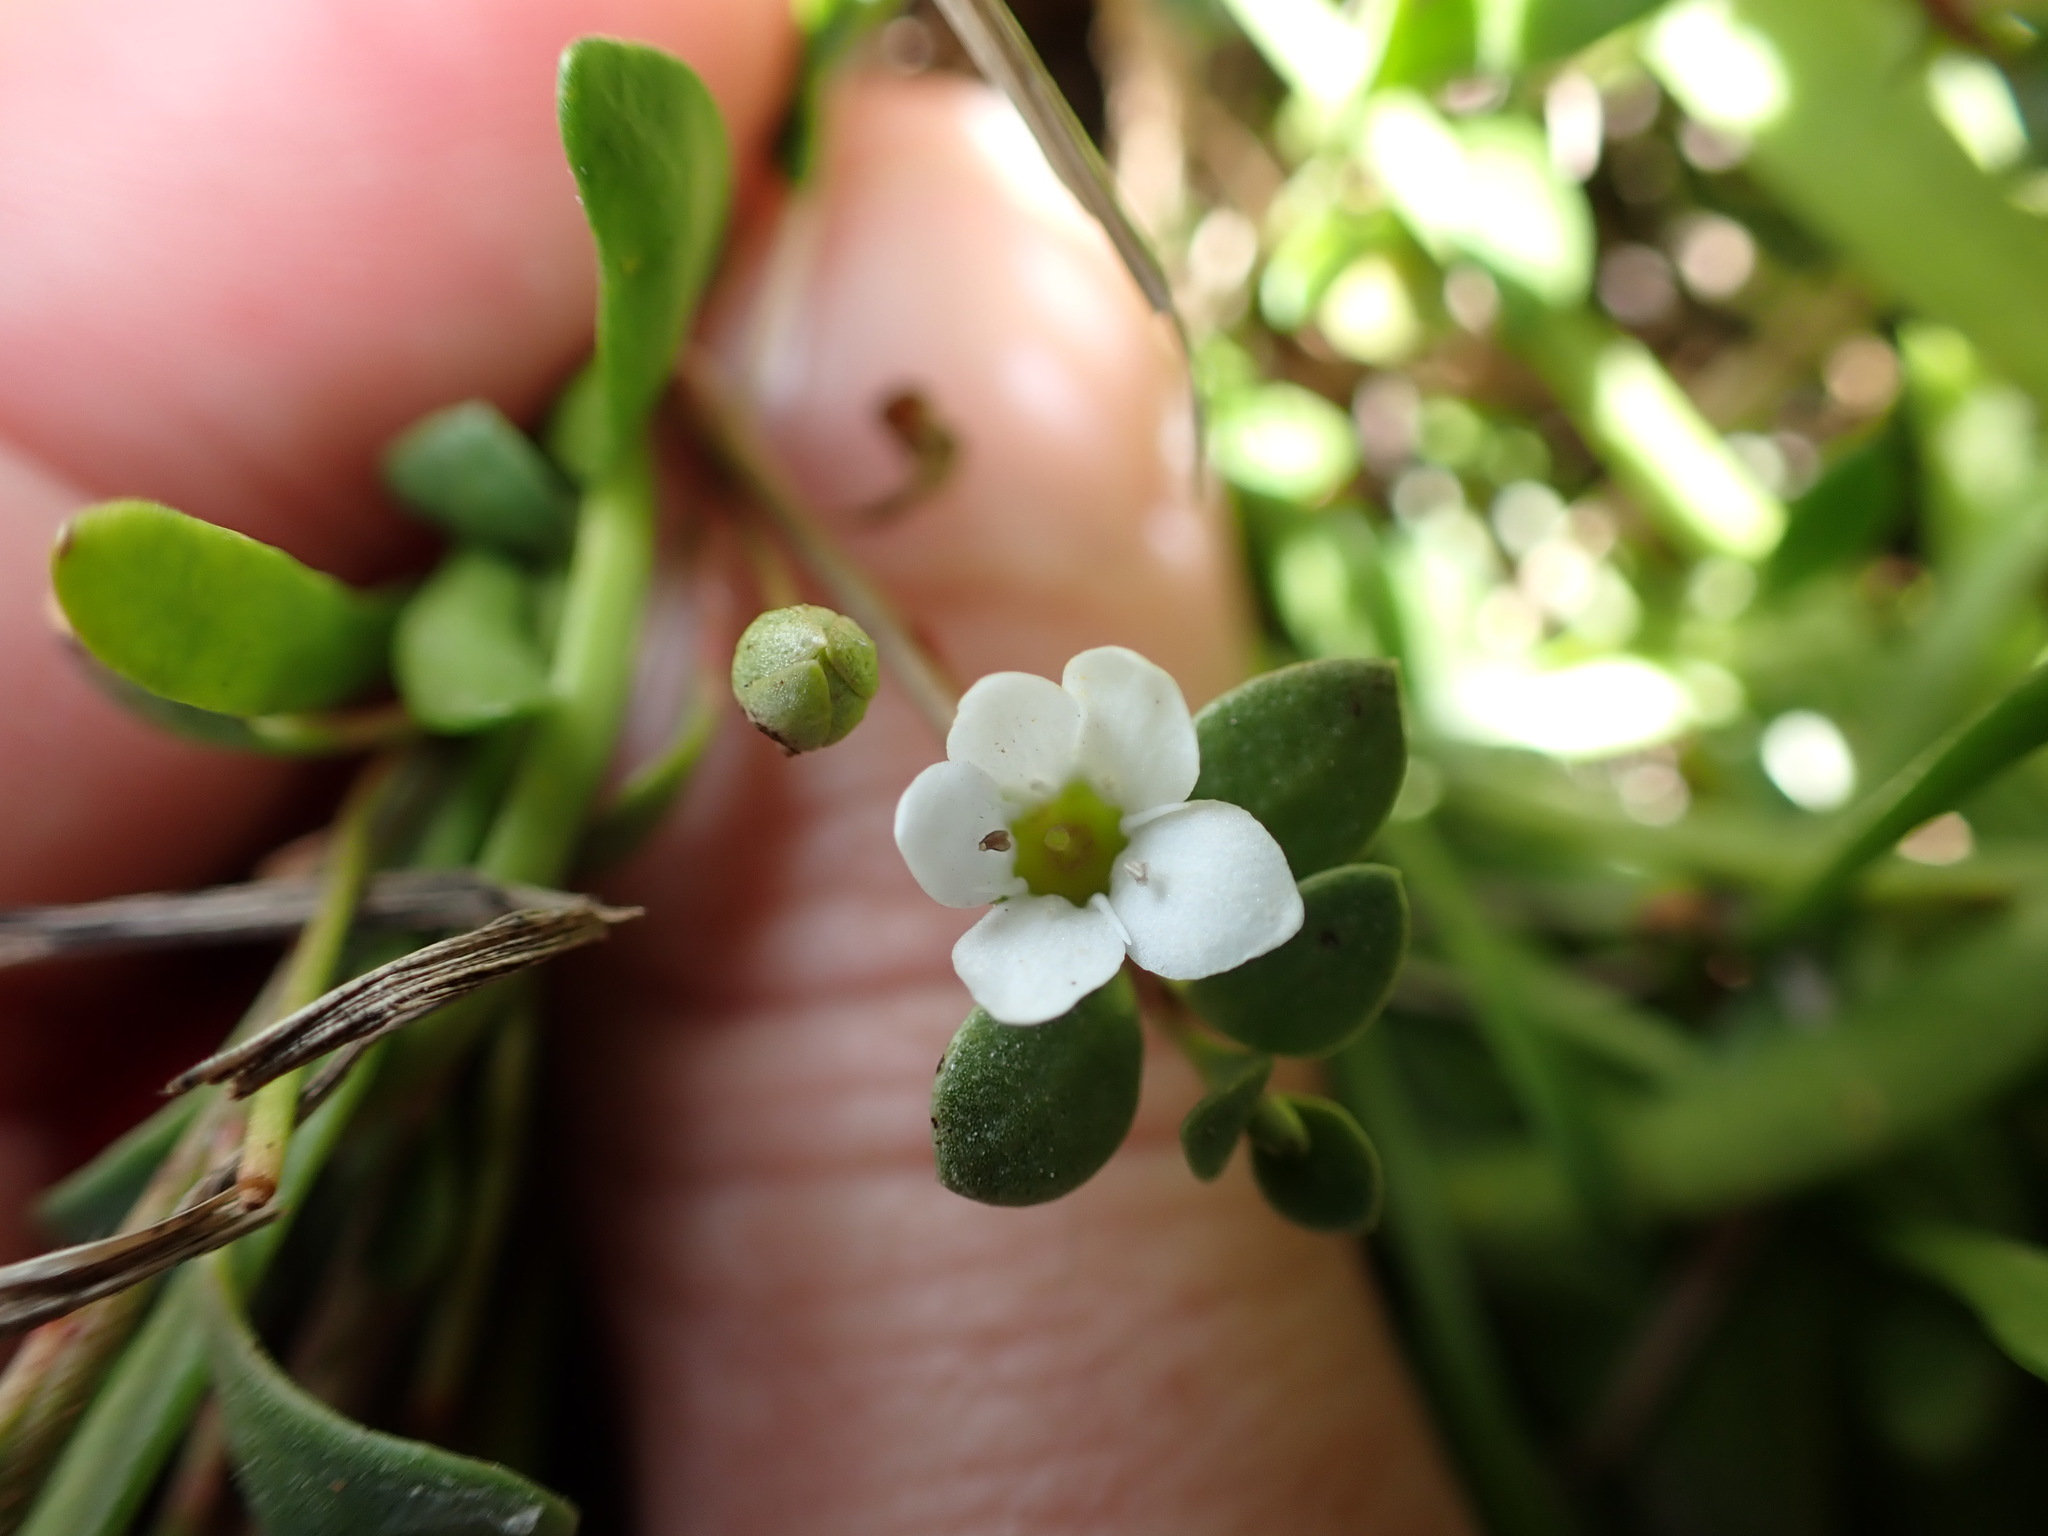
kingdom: Plantae
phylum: Tracheophyta
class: Magnoliopsida
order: Ericales
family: Primulaceae
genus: Samolus
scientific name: Samolus repens
